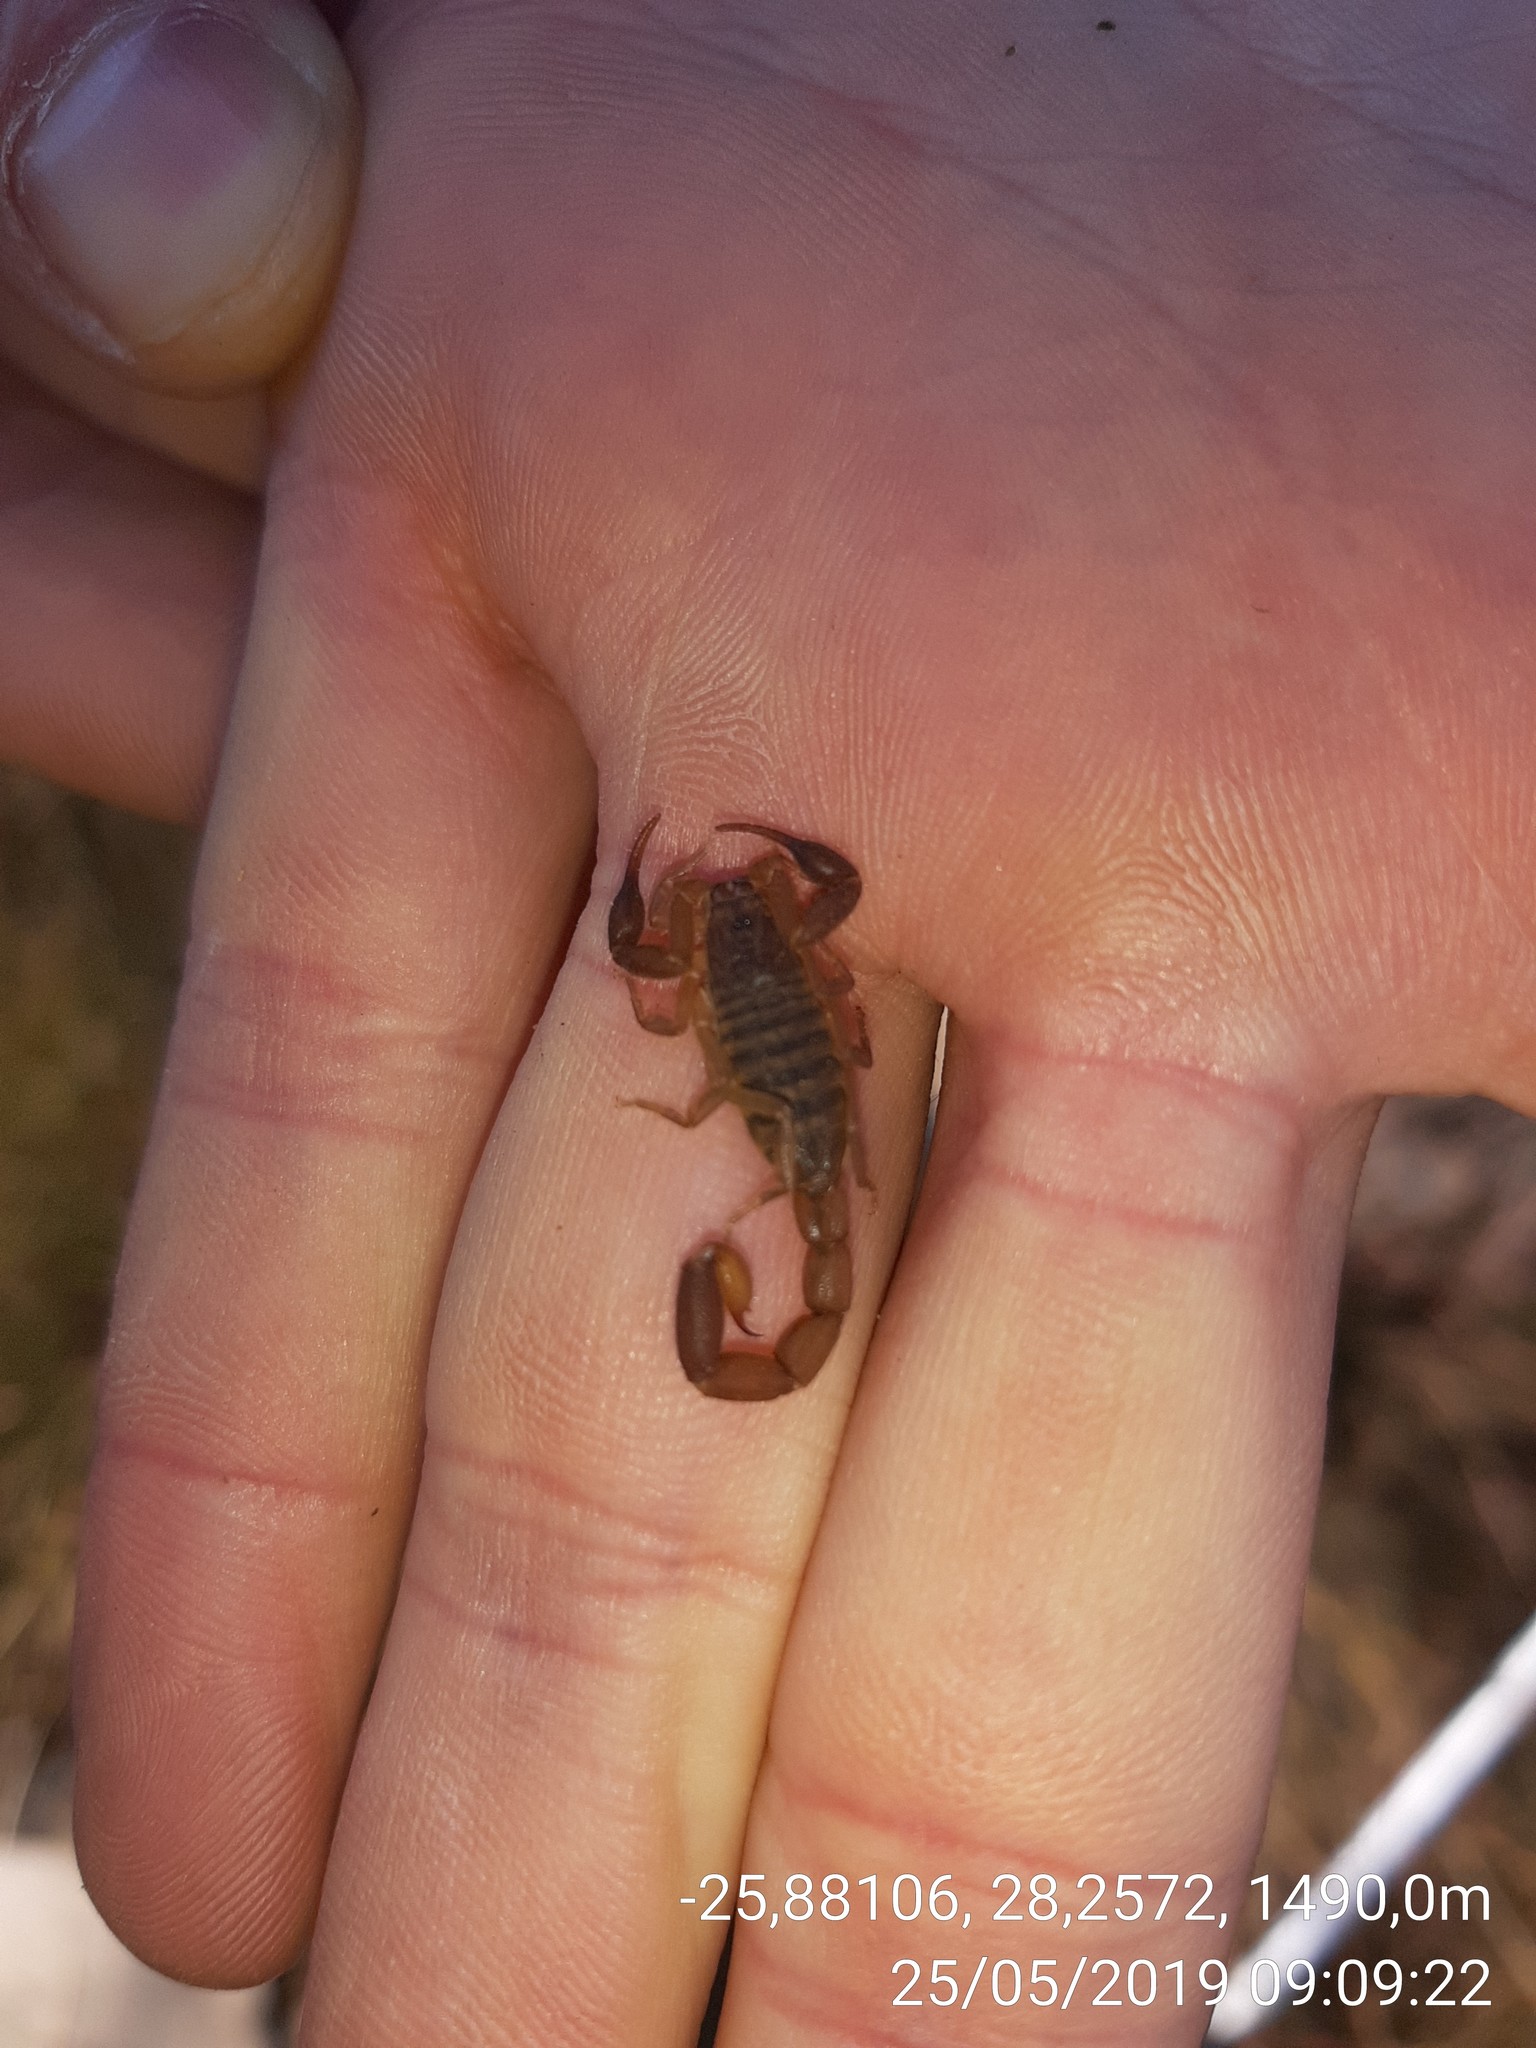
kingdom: Animalia
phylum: Arthropoda
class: Arachnida
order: Scorpiones
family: Buthidae
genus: Pseudolychas
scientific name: Pseudolychas ochraceus
